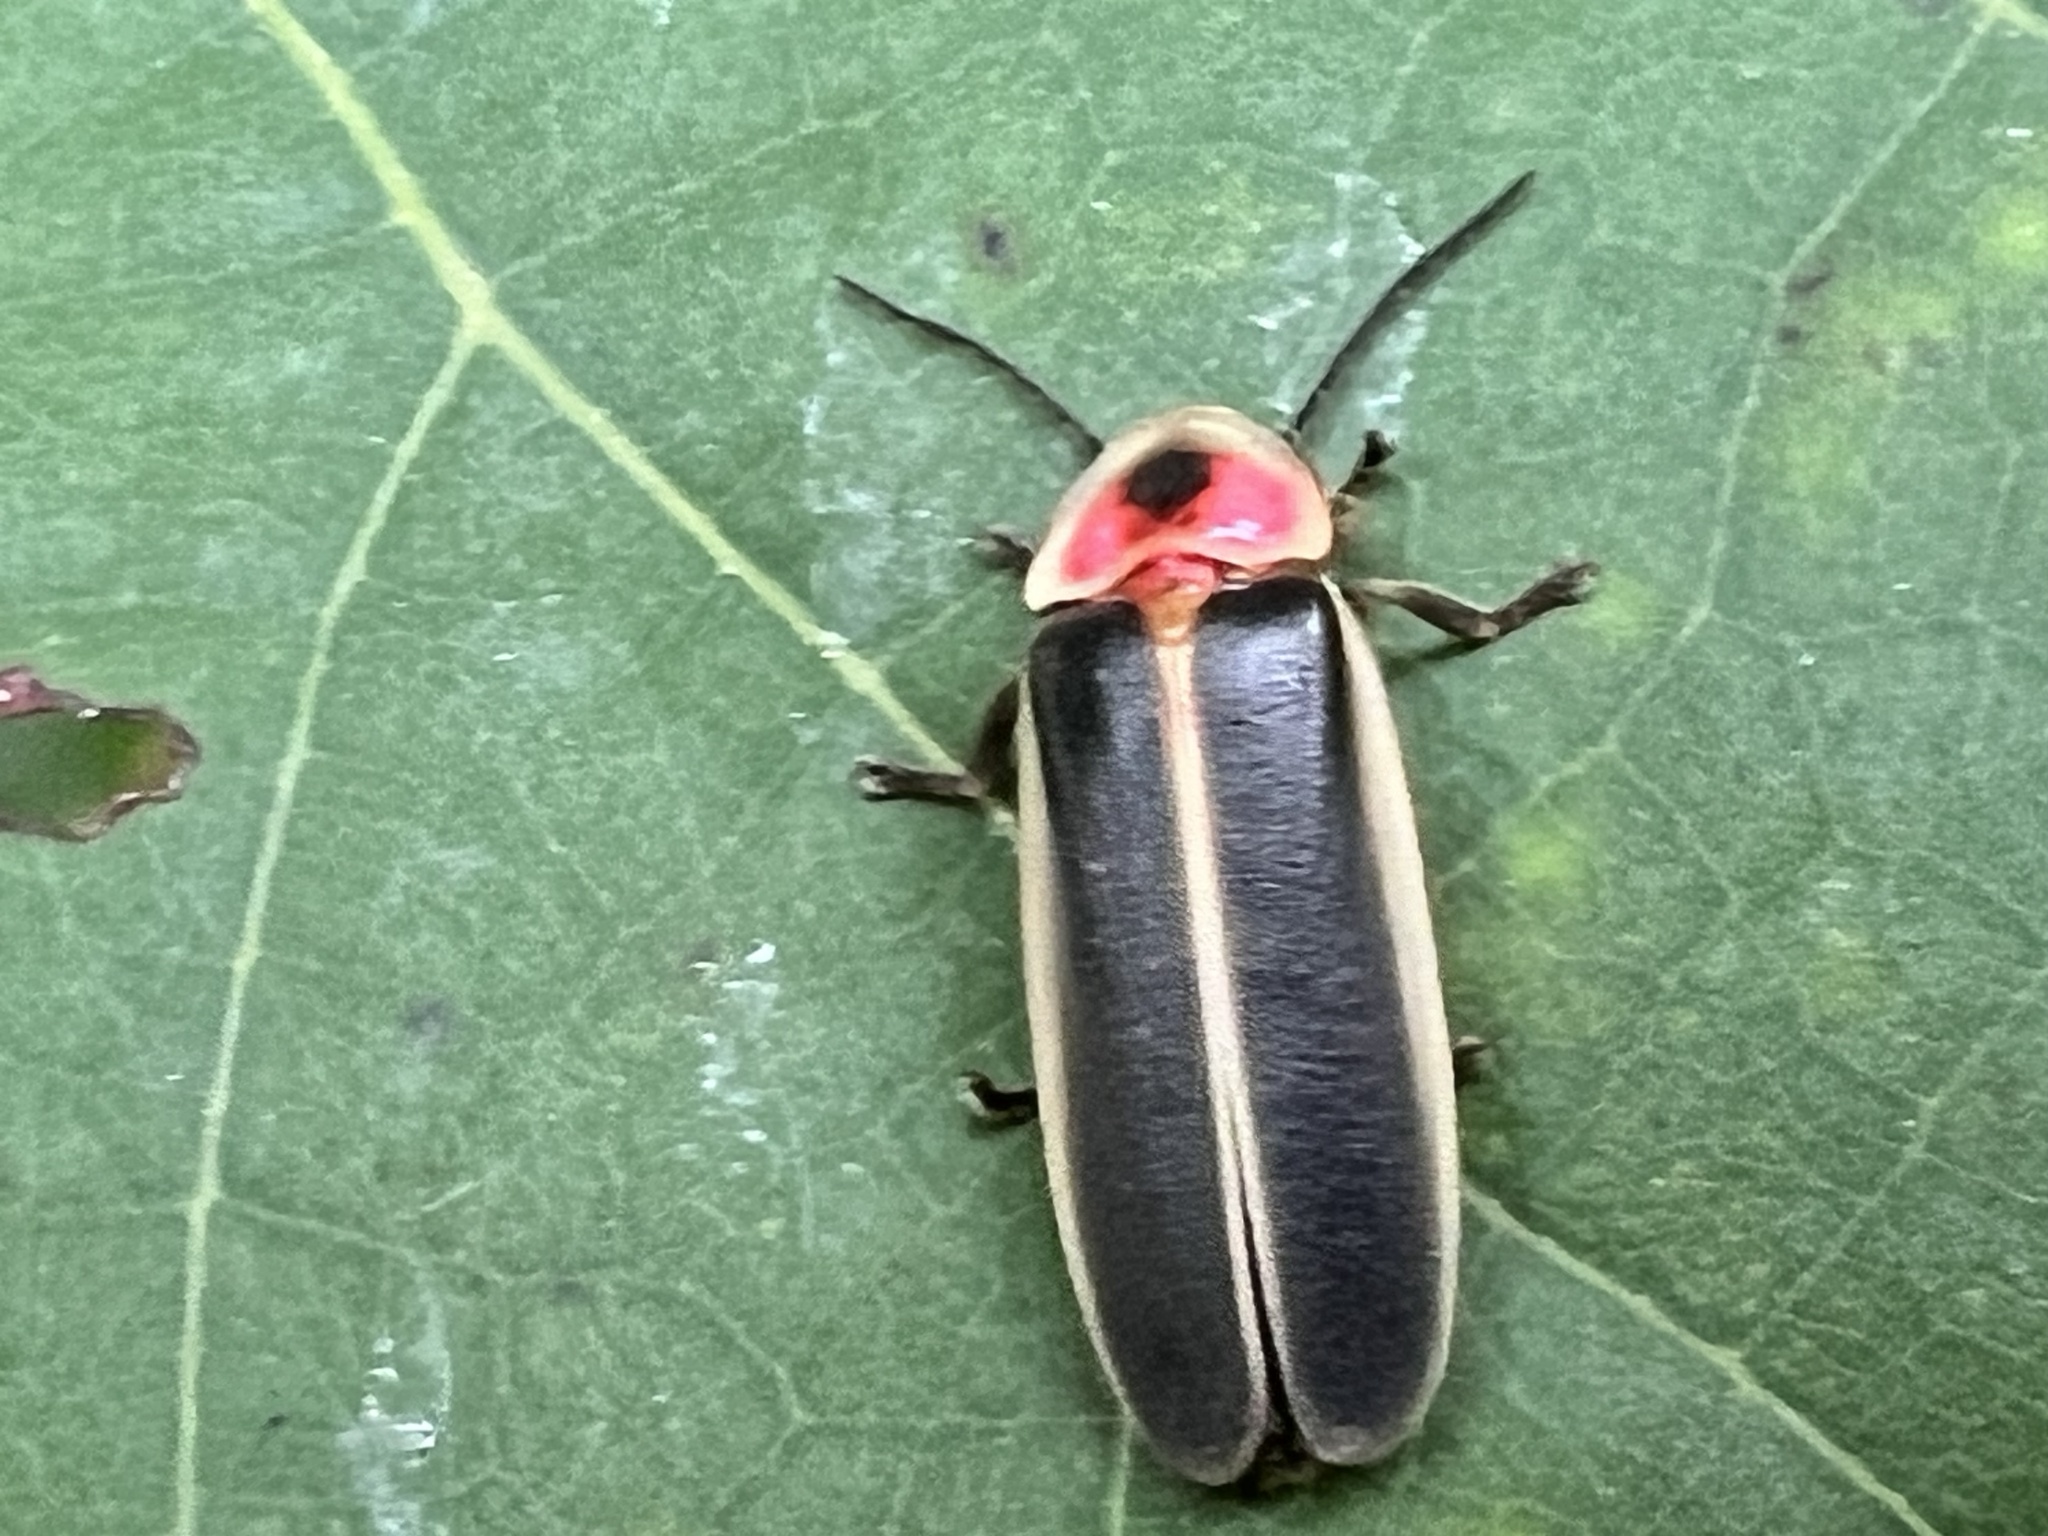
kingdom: Animalia
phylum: Arthropoda
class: Insecta
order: Coleoptera
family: Lampyridae
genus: Photinus
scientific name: Photinus pyralis
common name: Big dipper firefly
